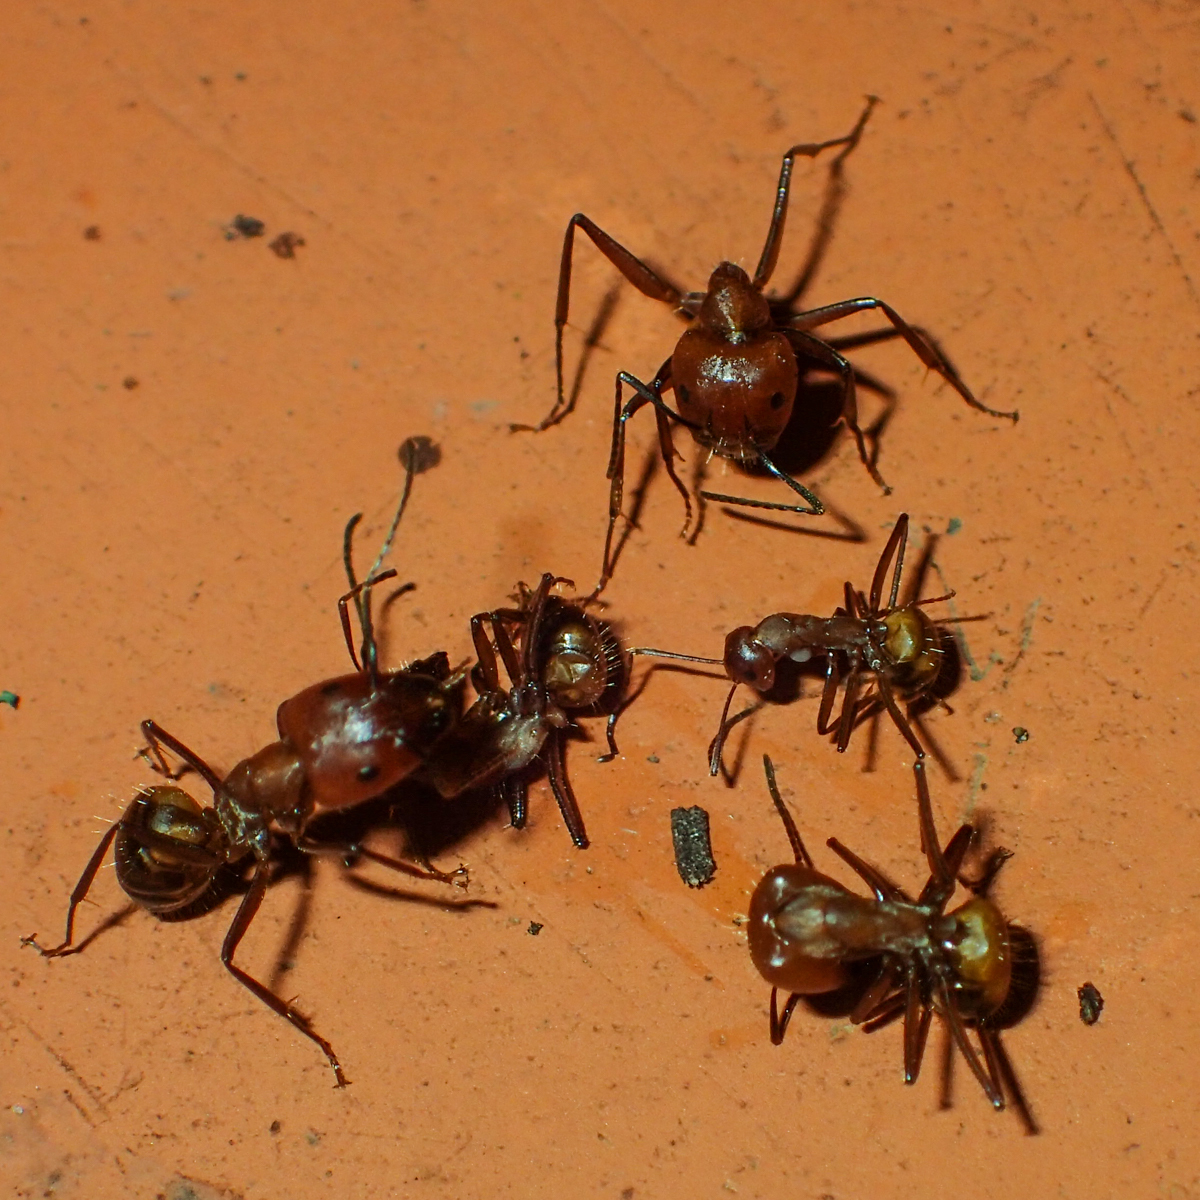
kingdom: Animalia
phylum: Arthropoda
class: Insecta
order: Hymenoptera
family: Formicidae
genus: Camponotus
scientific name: Camponotus nicobarensis
